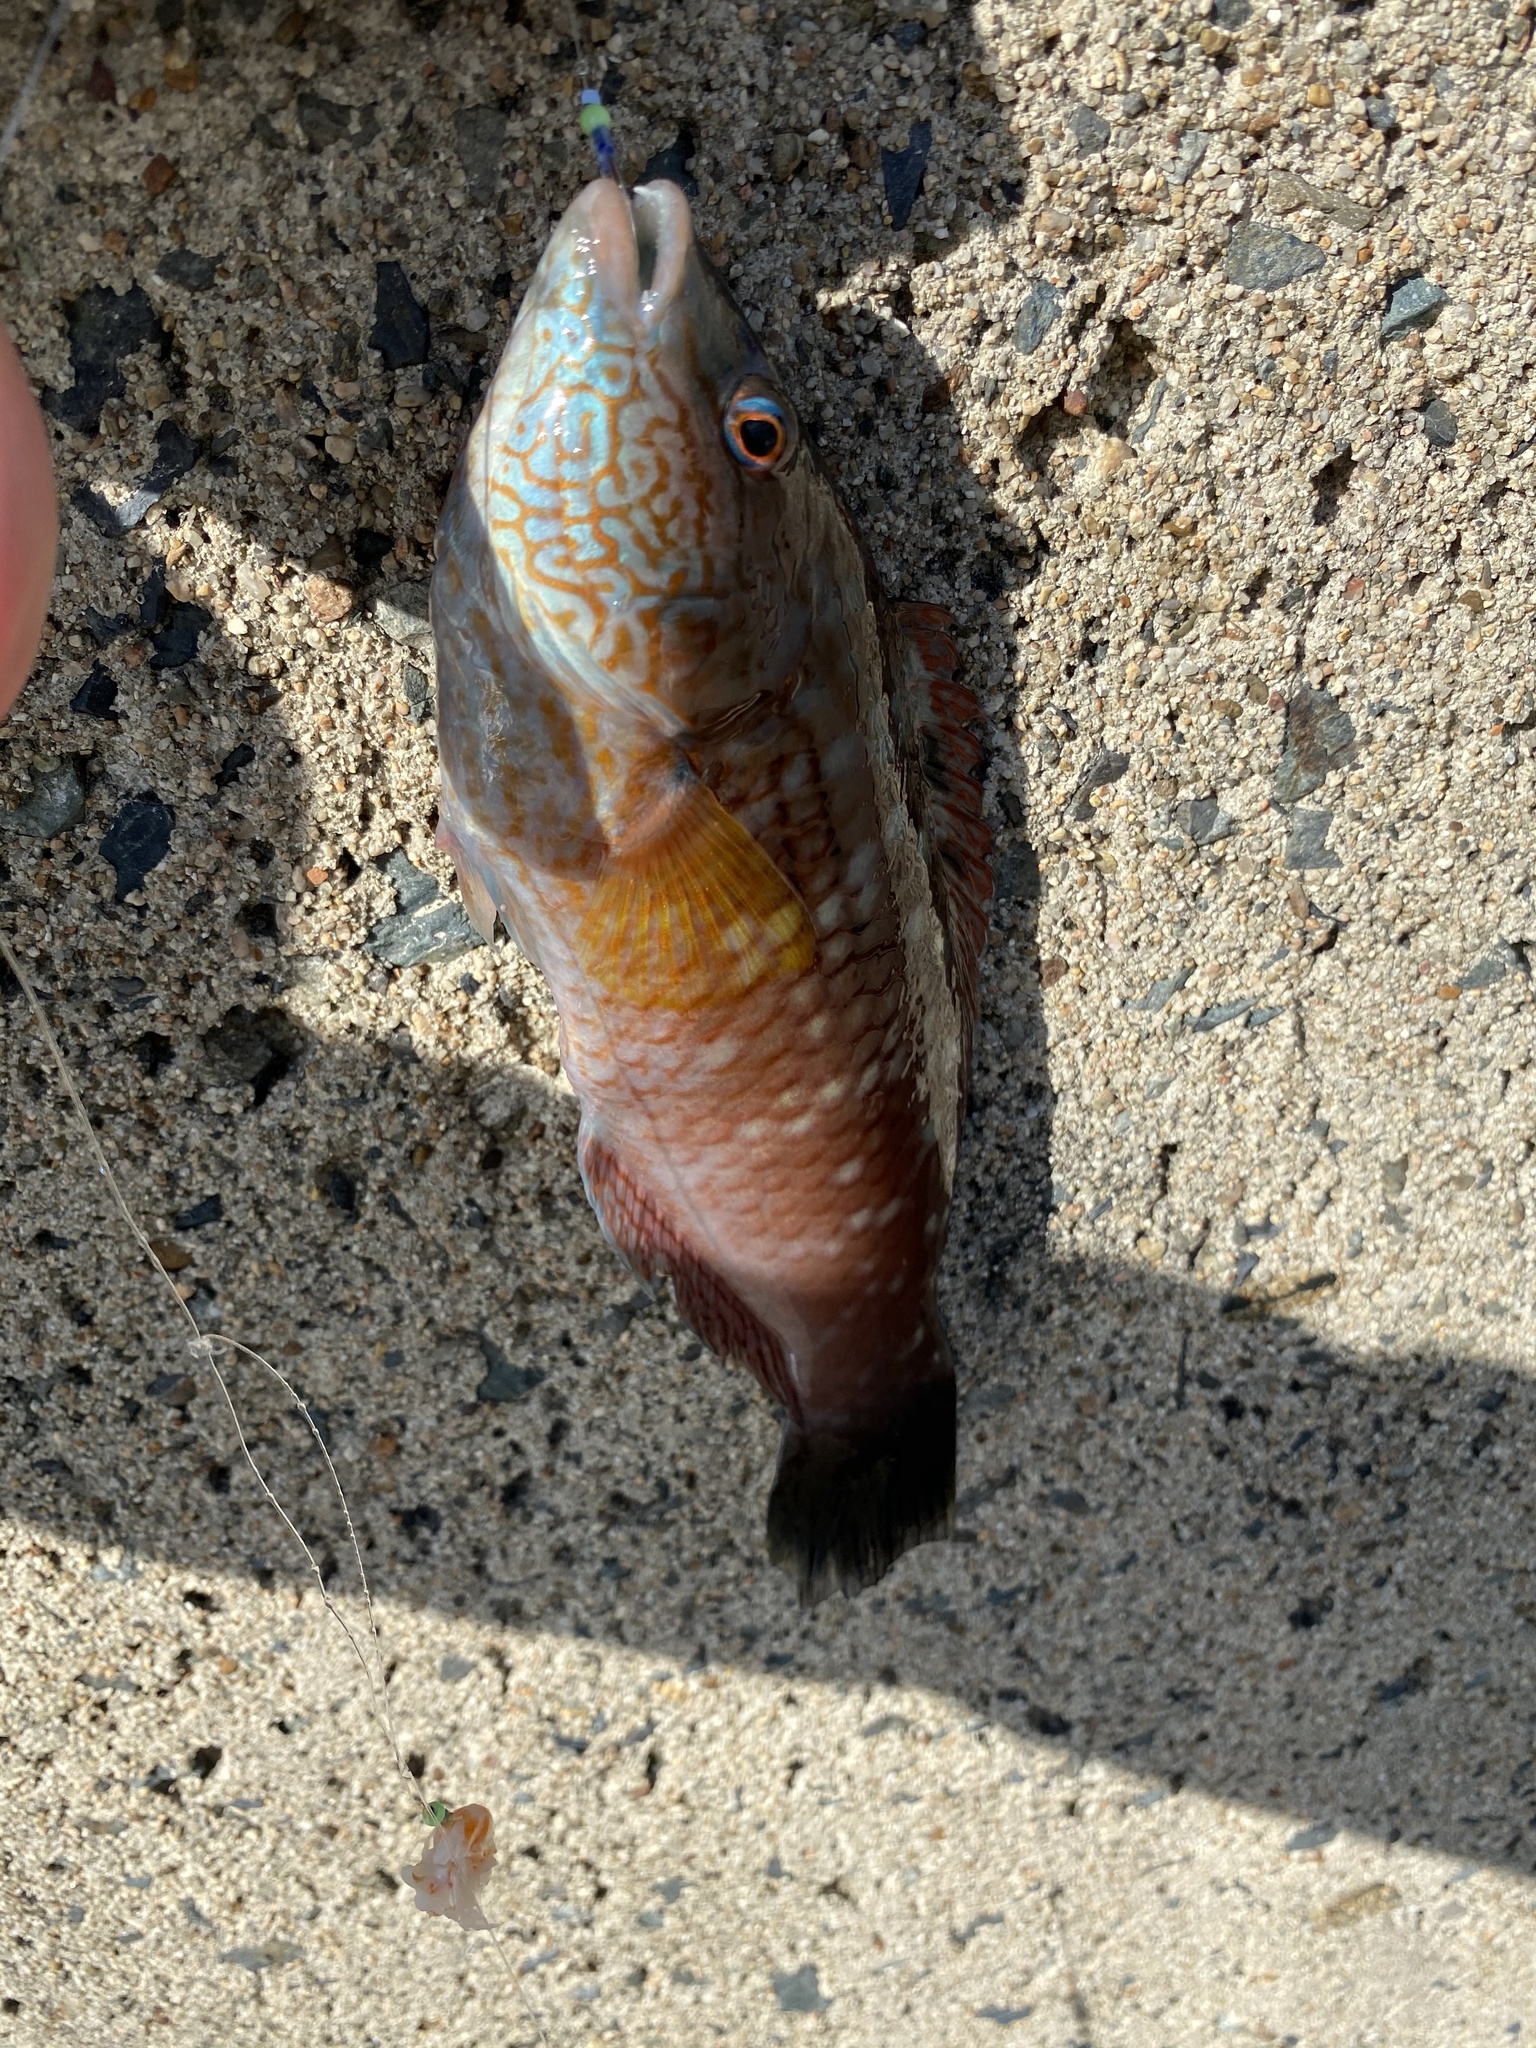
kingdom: Animalia
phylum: Chordata
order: Perciformes
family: Labridae
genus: Pseudolabrus
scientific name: Pseudolabrus sieboldi
